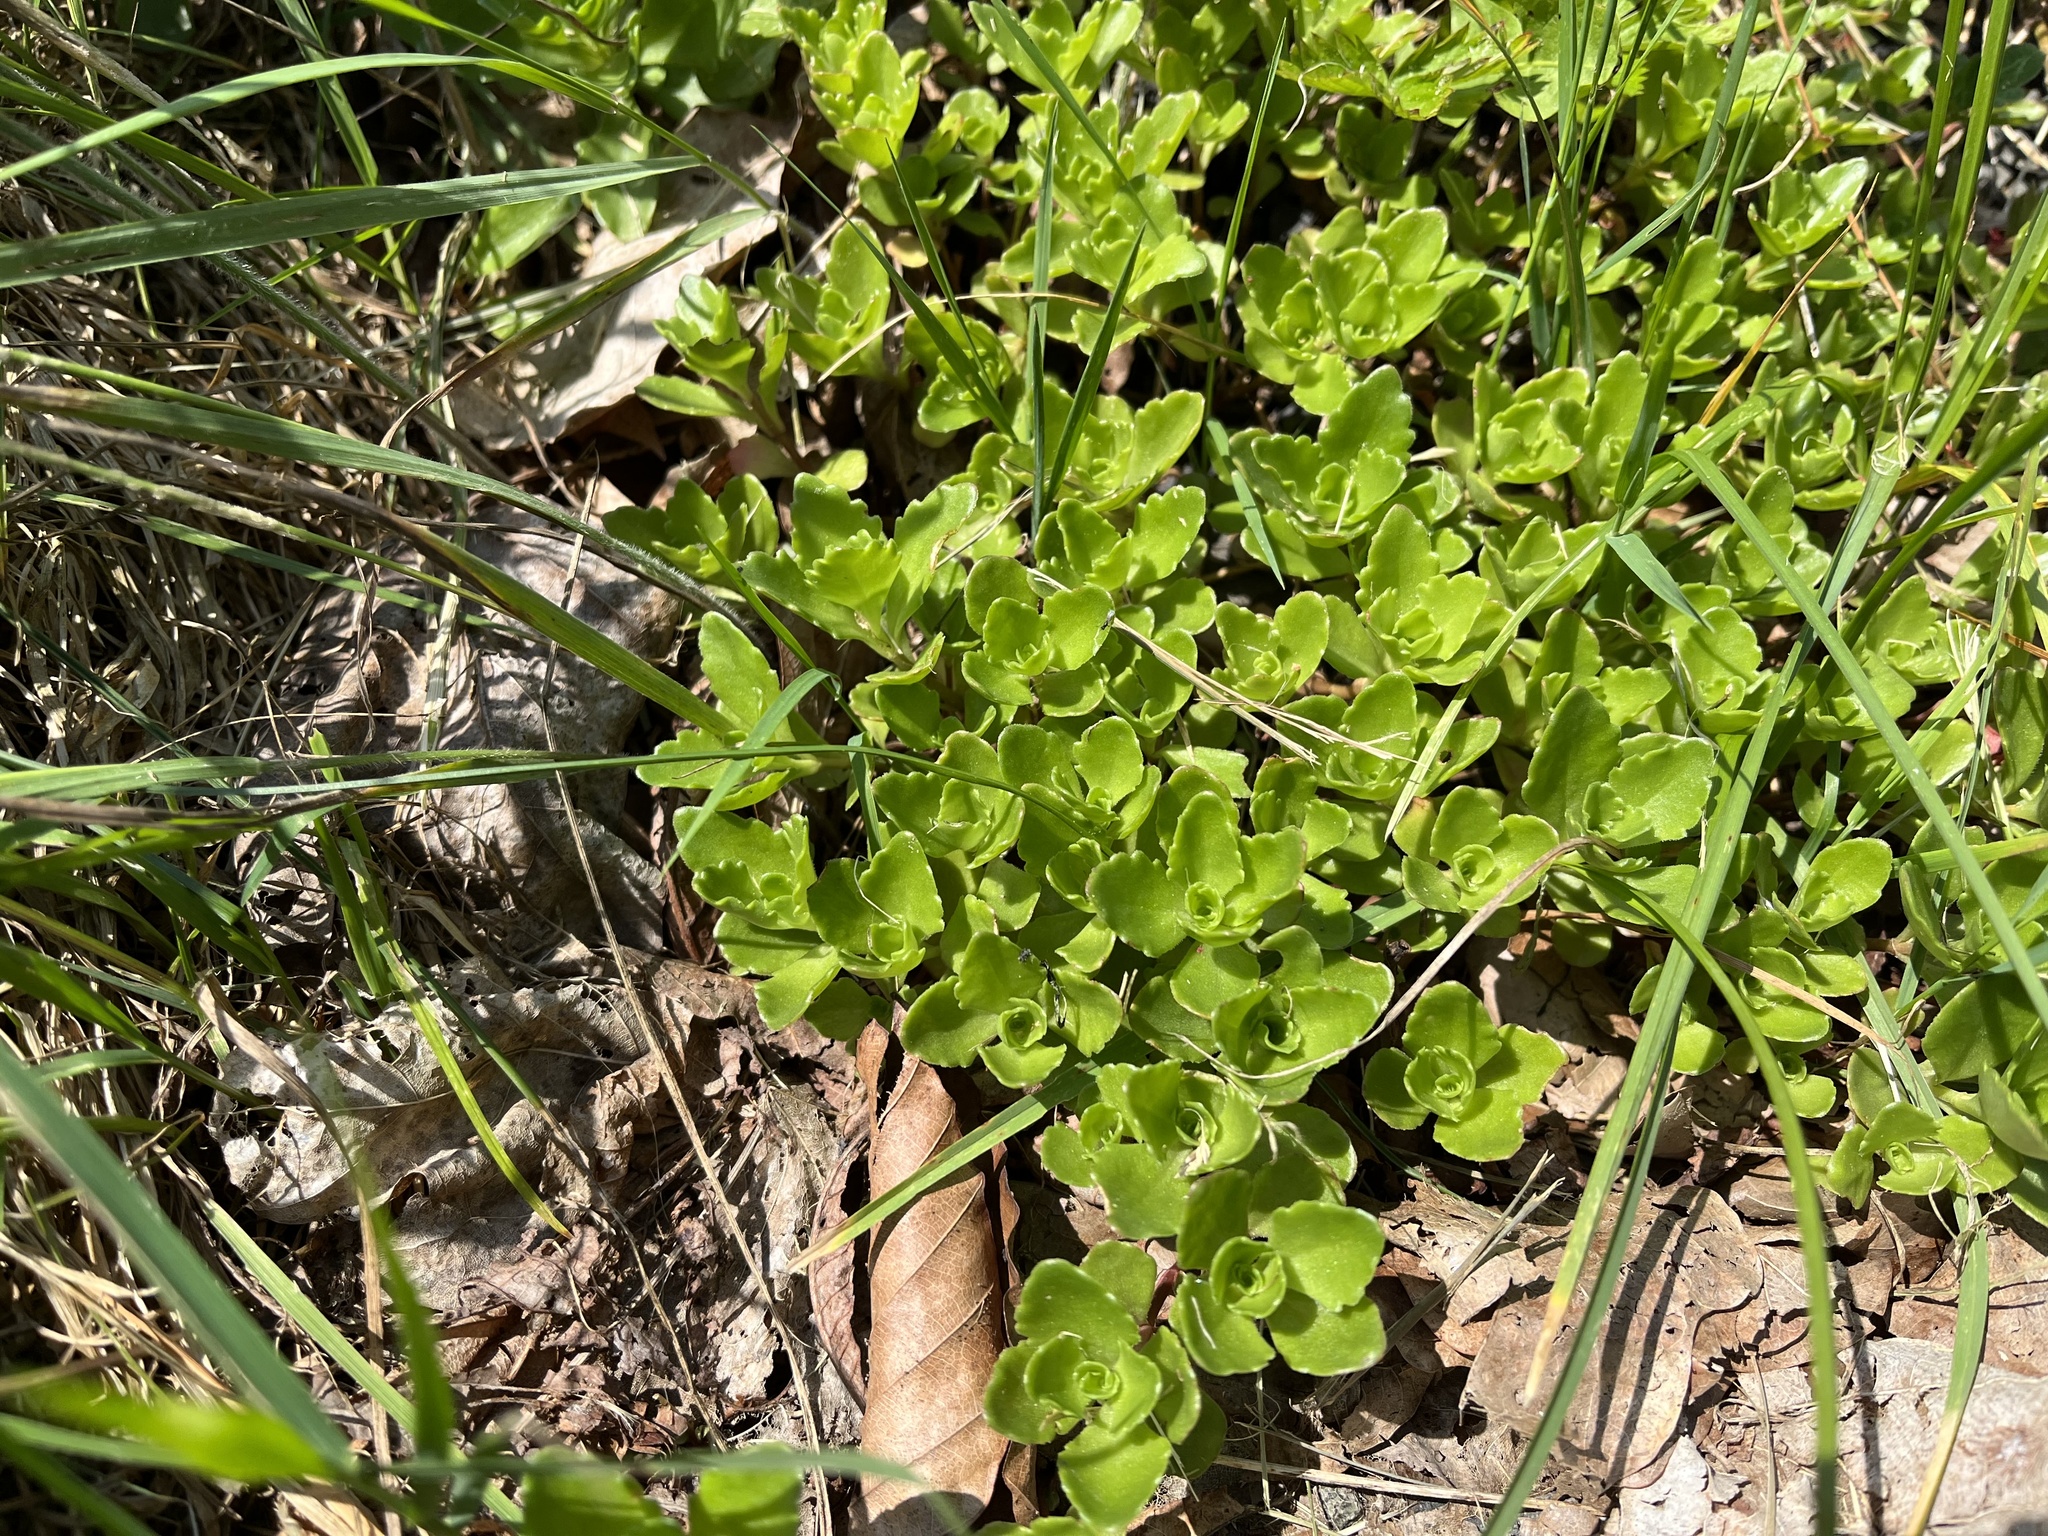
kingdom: Plantae
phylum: Tracheophyta
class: Magnoliopsida
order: Saxifragales
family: Crassulaceae
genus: Phedimus
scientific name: Phedimus spurius
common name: Caucasian stonecrop
